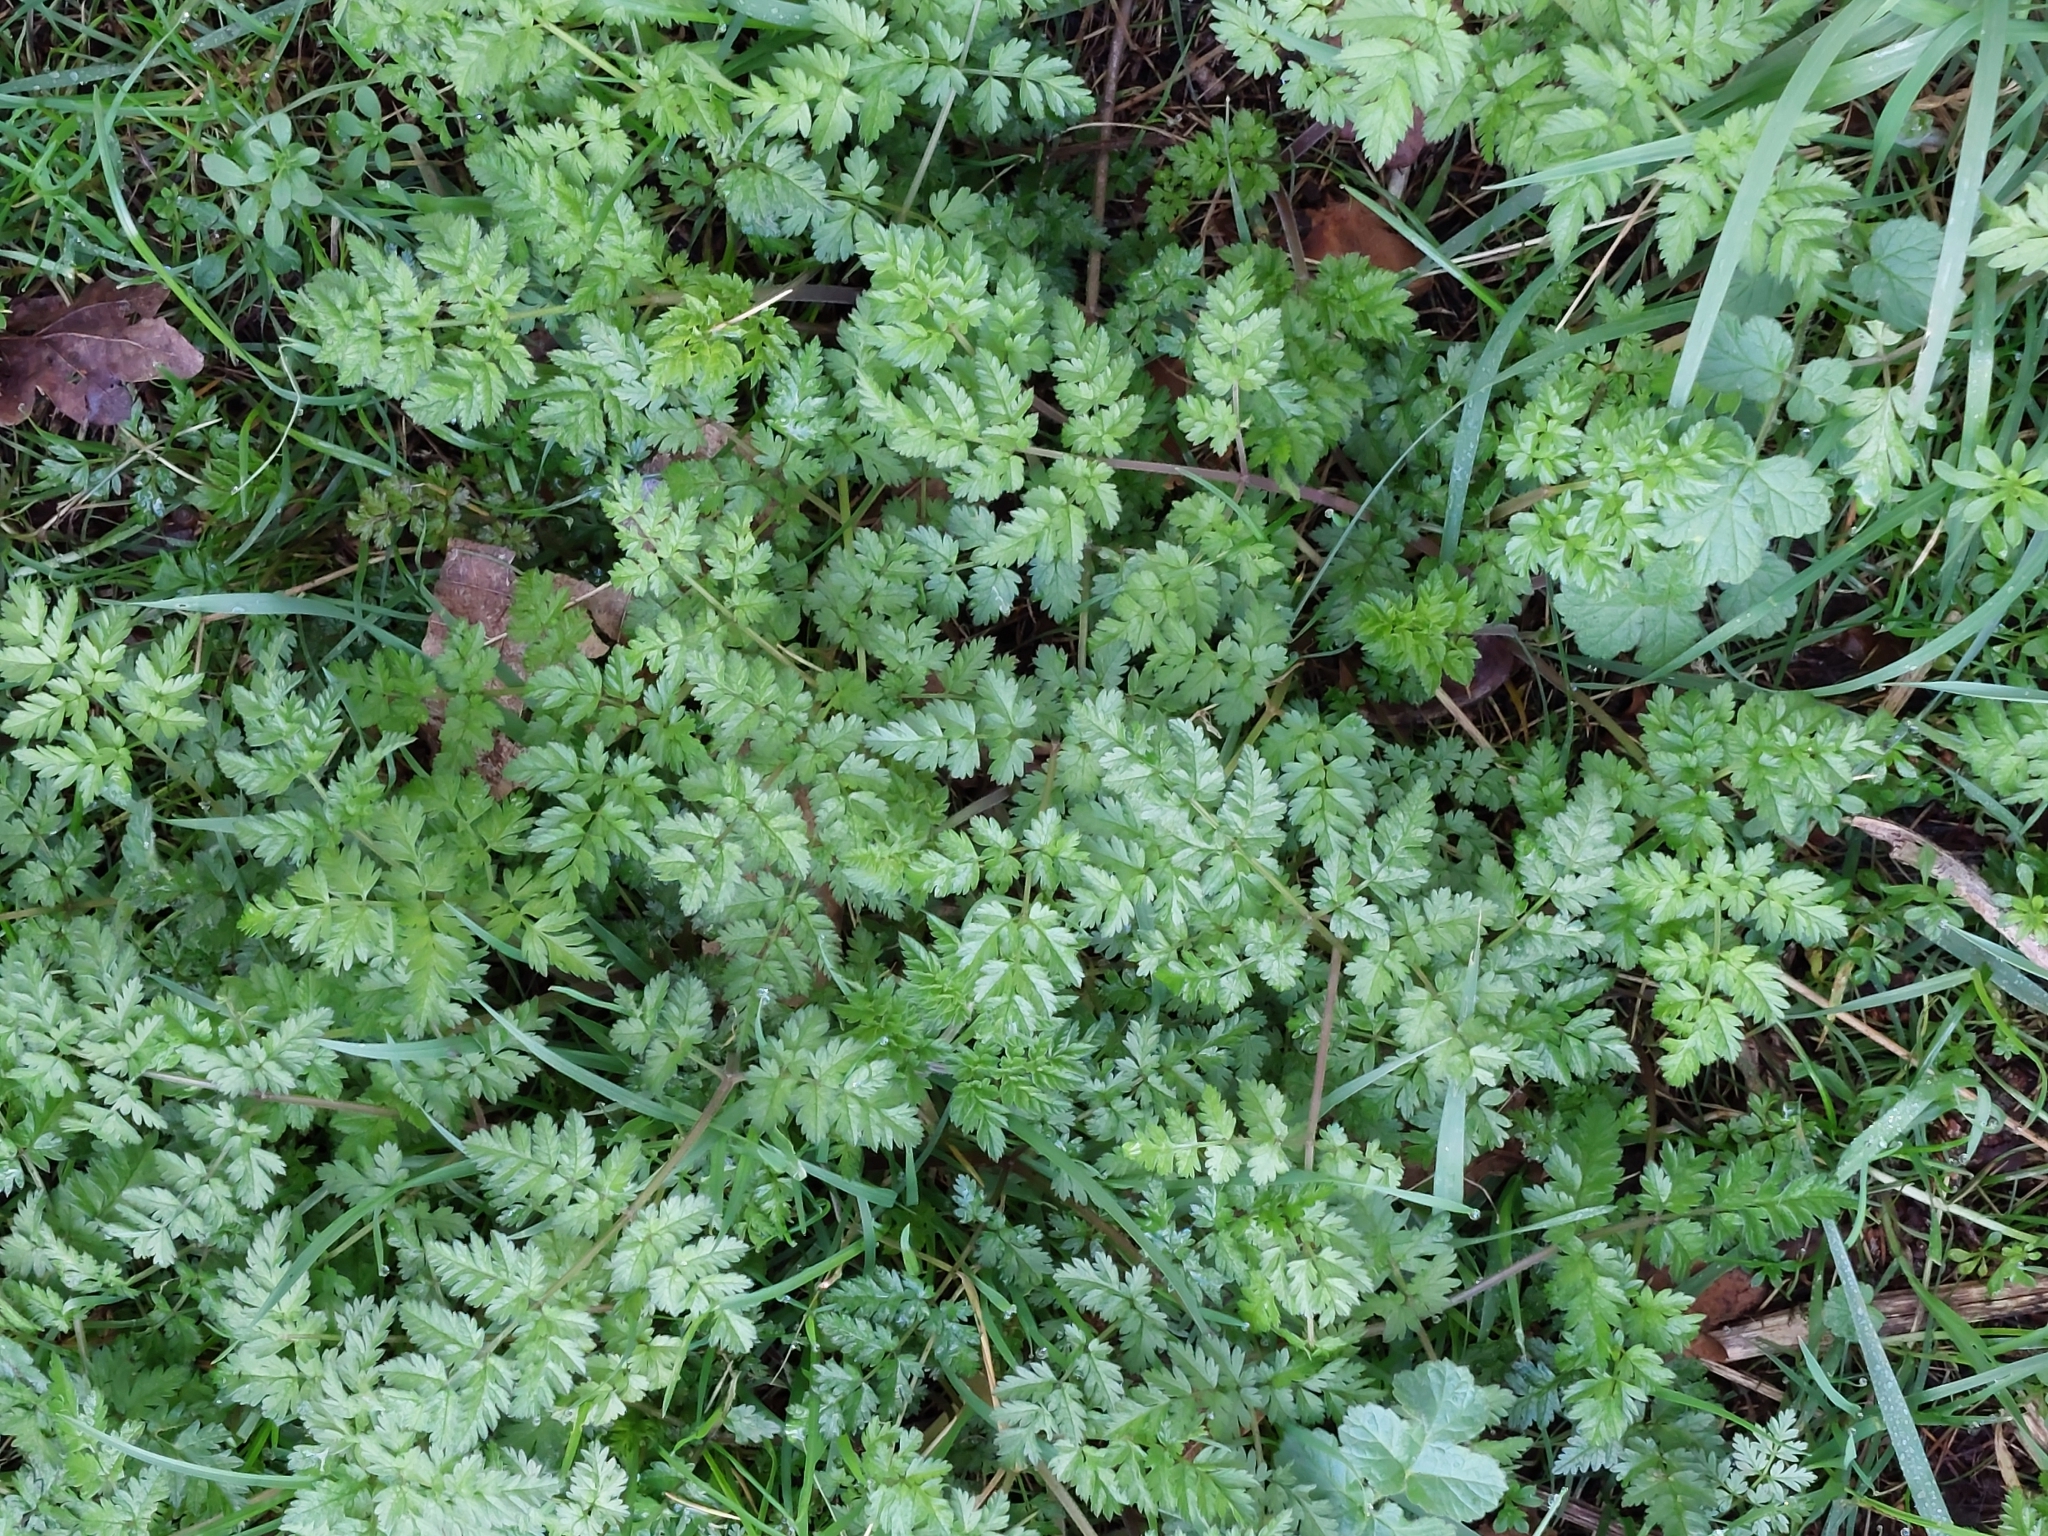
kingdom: Plantae
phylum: Tracheophyta
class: Magnoliopsida
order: Apiales
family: Apiaceae
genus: Anthriscus
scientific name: Anthriscus sylvestris
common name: Cow parsley
